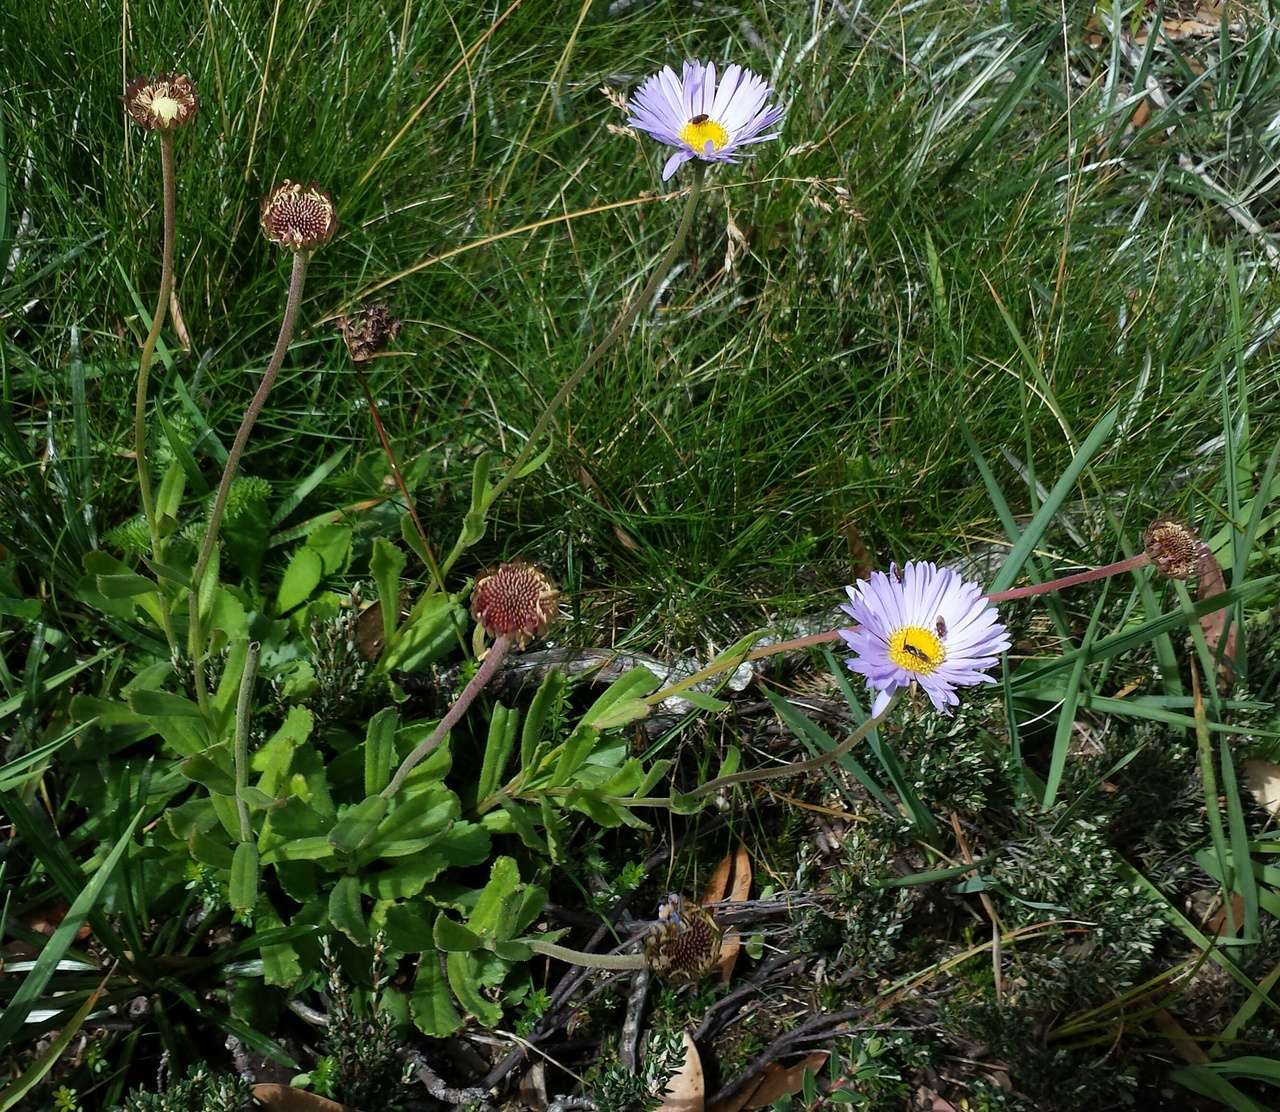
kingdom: Plantae
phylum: Tracheophyta
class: Magnoliopsida
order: Asterales
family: Asteraceae
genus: Brachyscome
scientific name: Brachyscome spathulata
